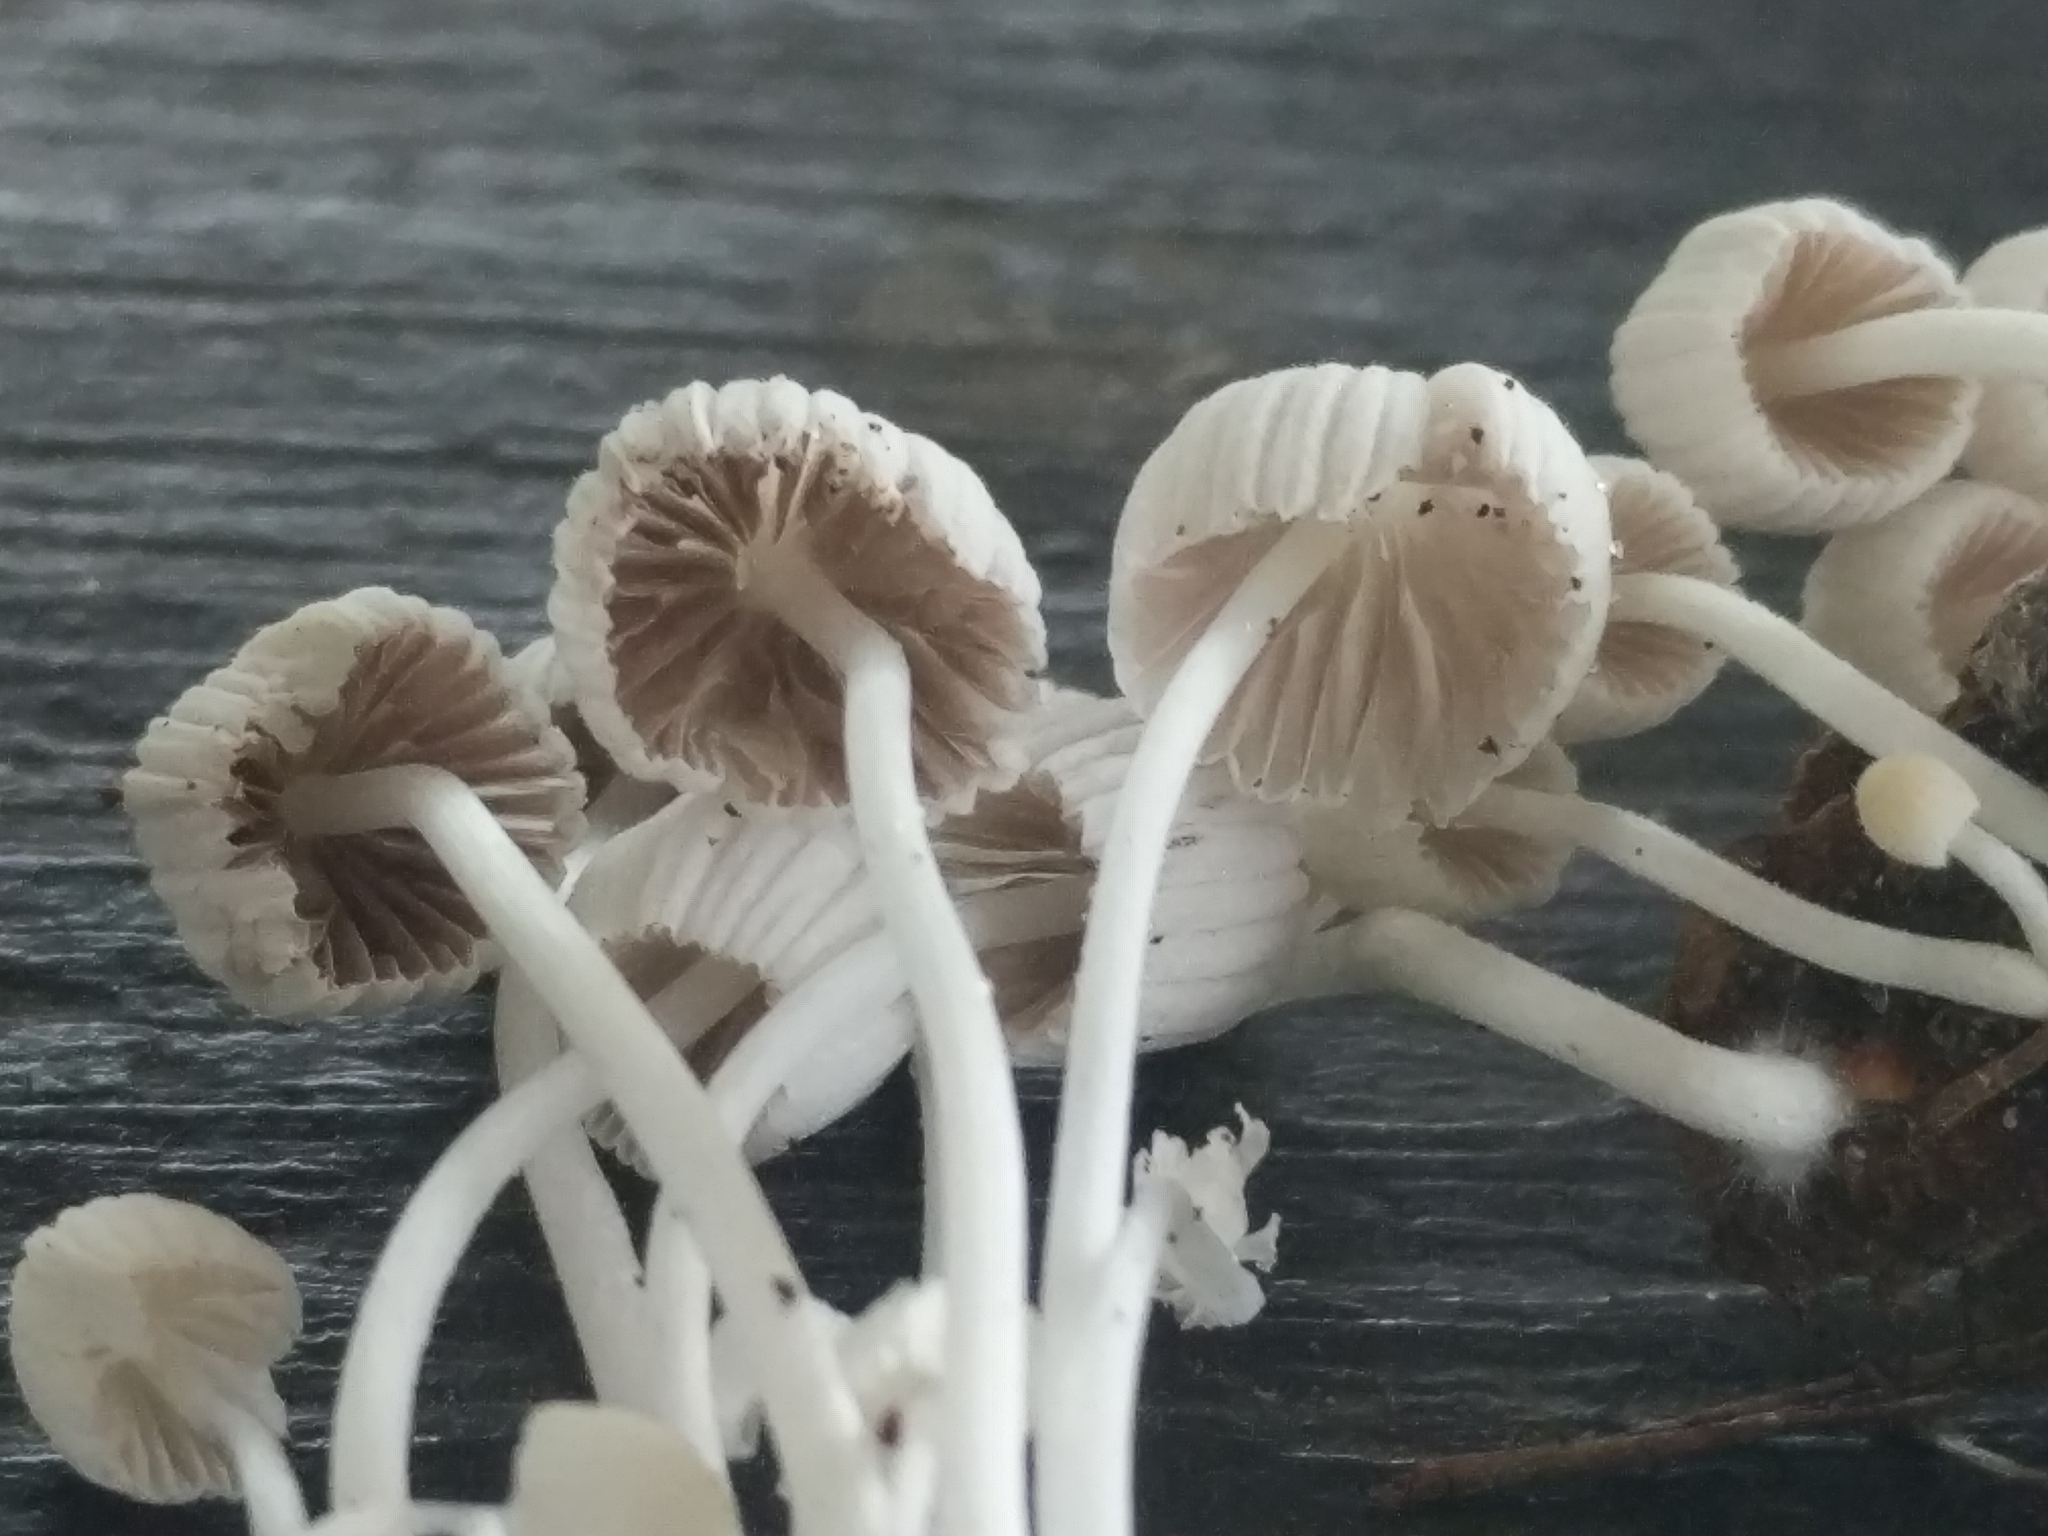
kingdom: Fungi
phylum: Basidiomycota
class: Agaricomycetes
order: Agaricales
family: Psathyrellaceae
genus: Coprinellus
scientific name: Coprinellus disseminatus
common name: Fairies' bonnets
